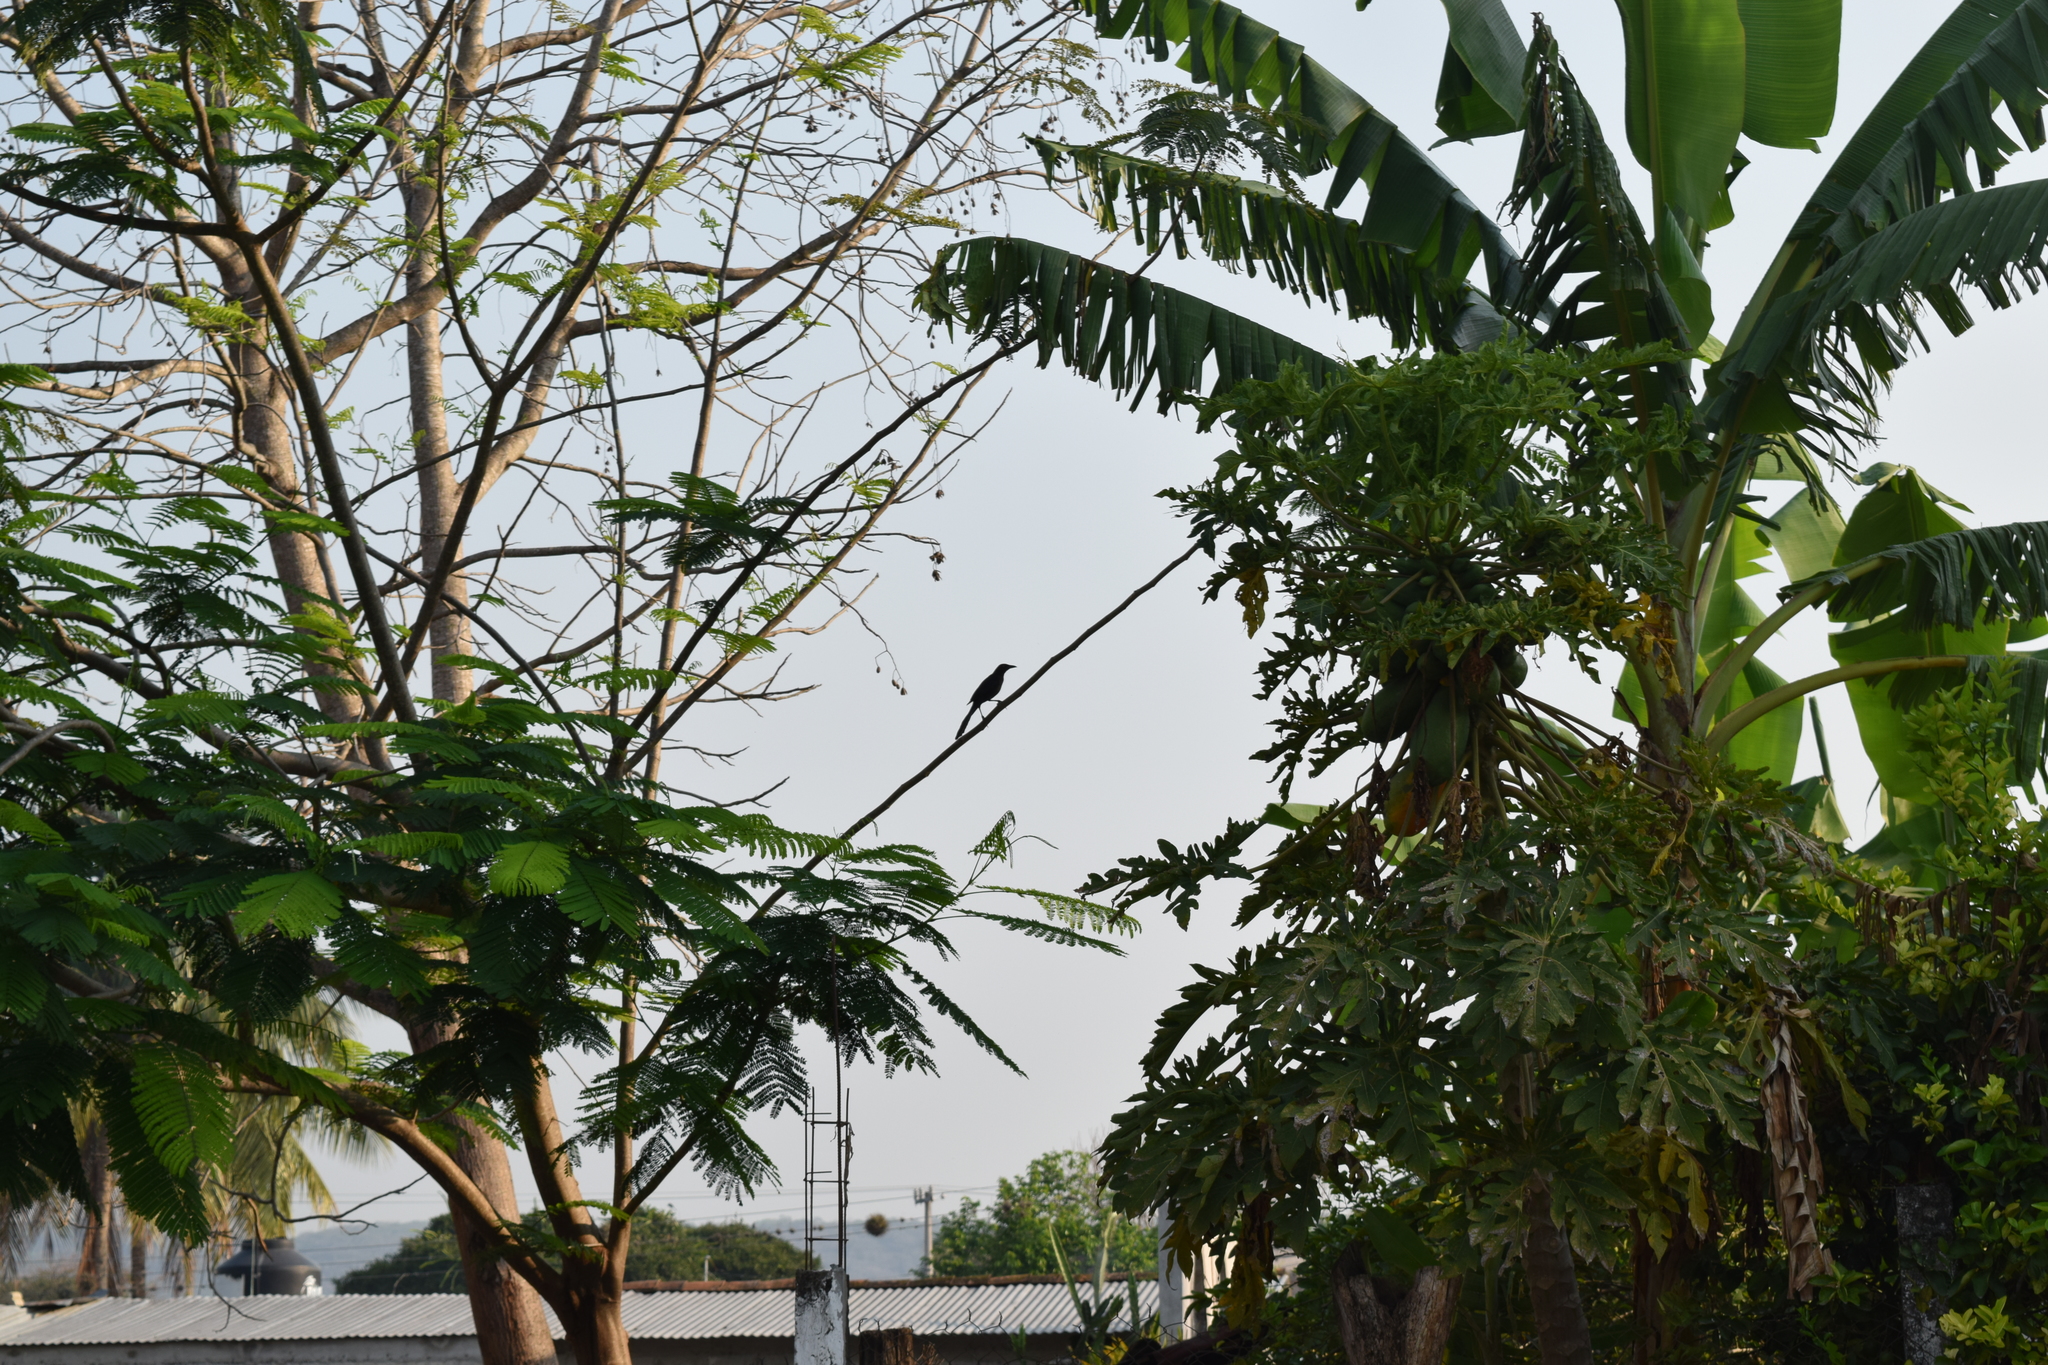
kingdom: Animalia
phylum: Chordata
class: Aves
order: Passeriformes
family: Icteridae
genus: Quiscalus
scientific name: Quiscalus mexicanus
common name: Great-tailed grackle
